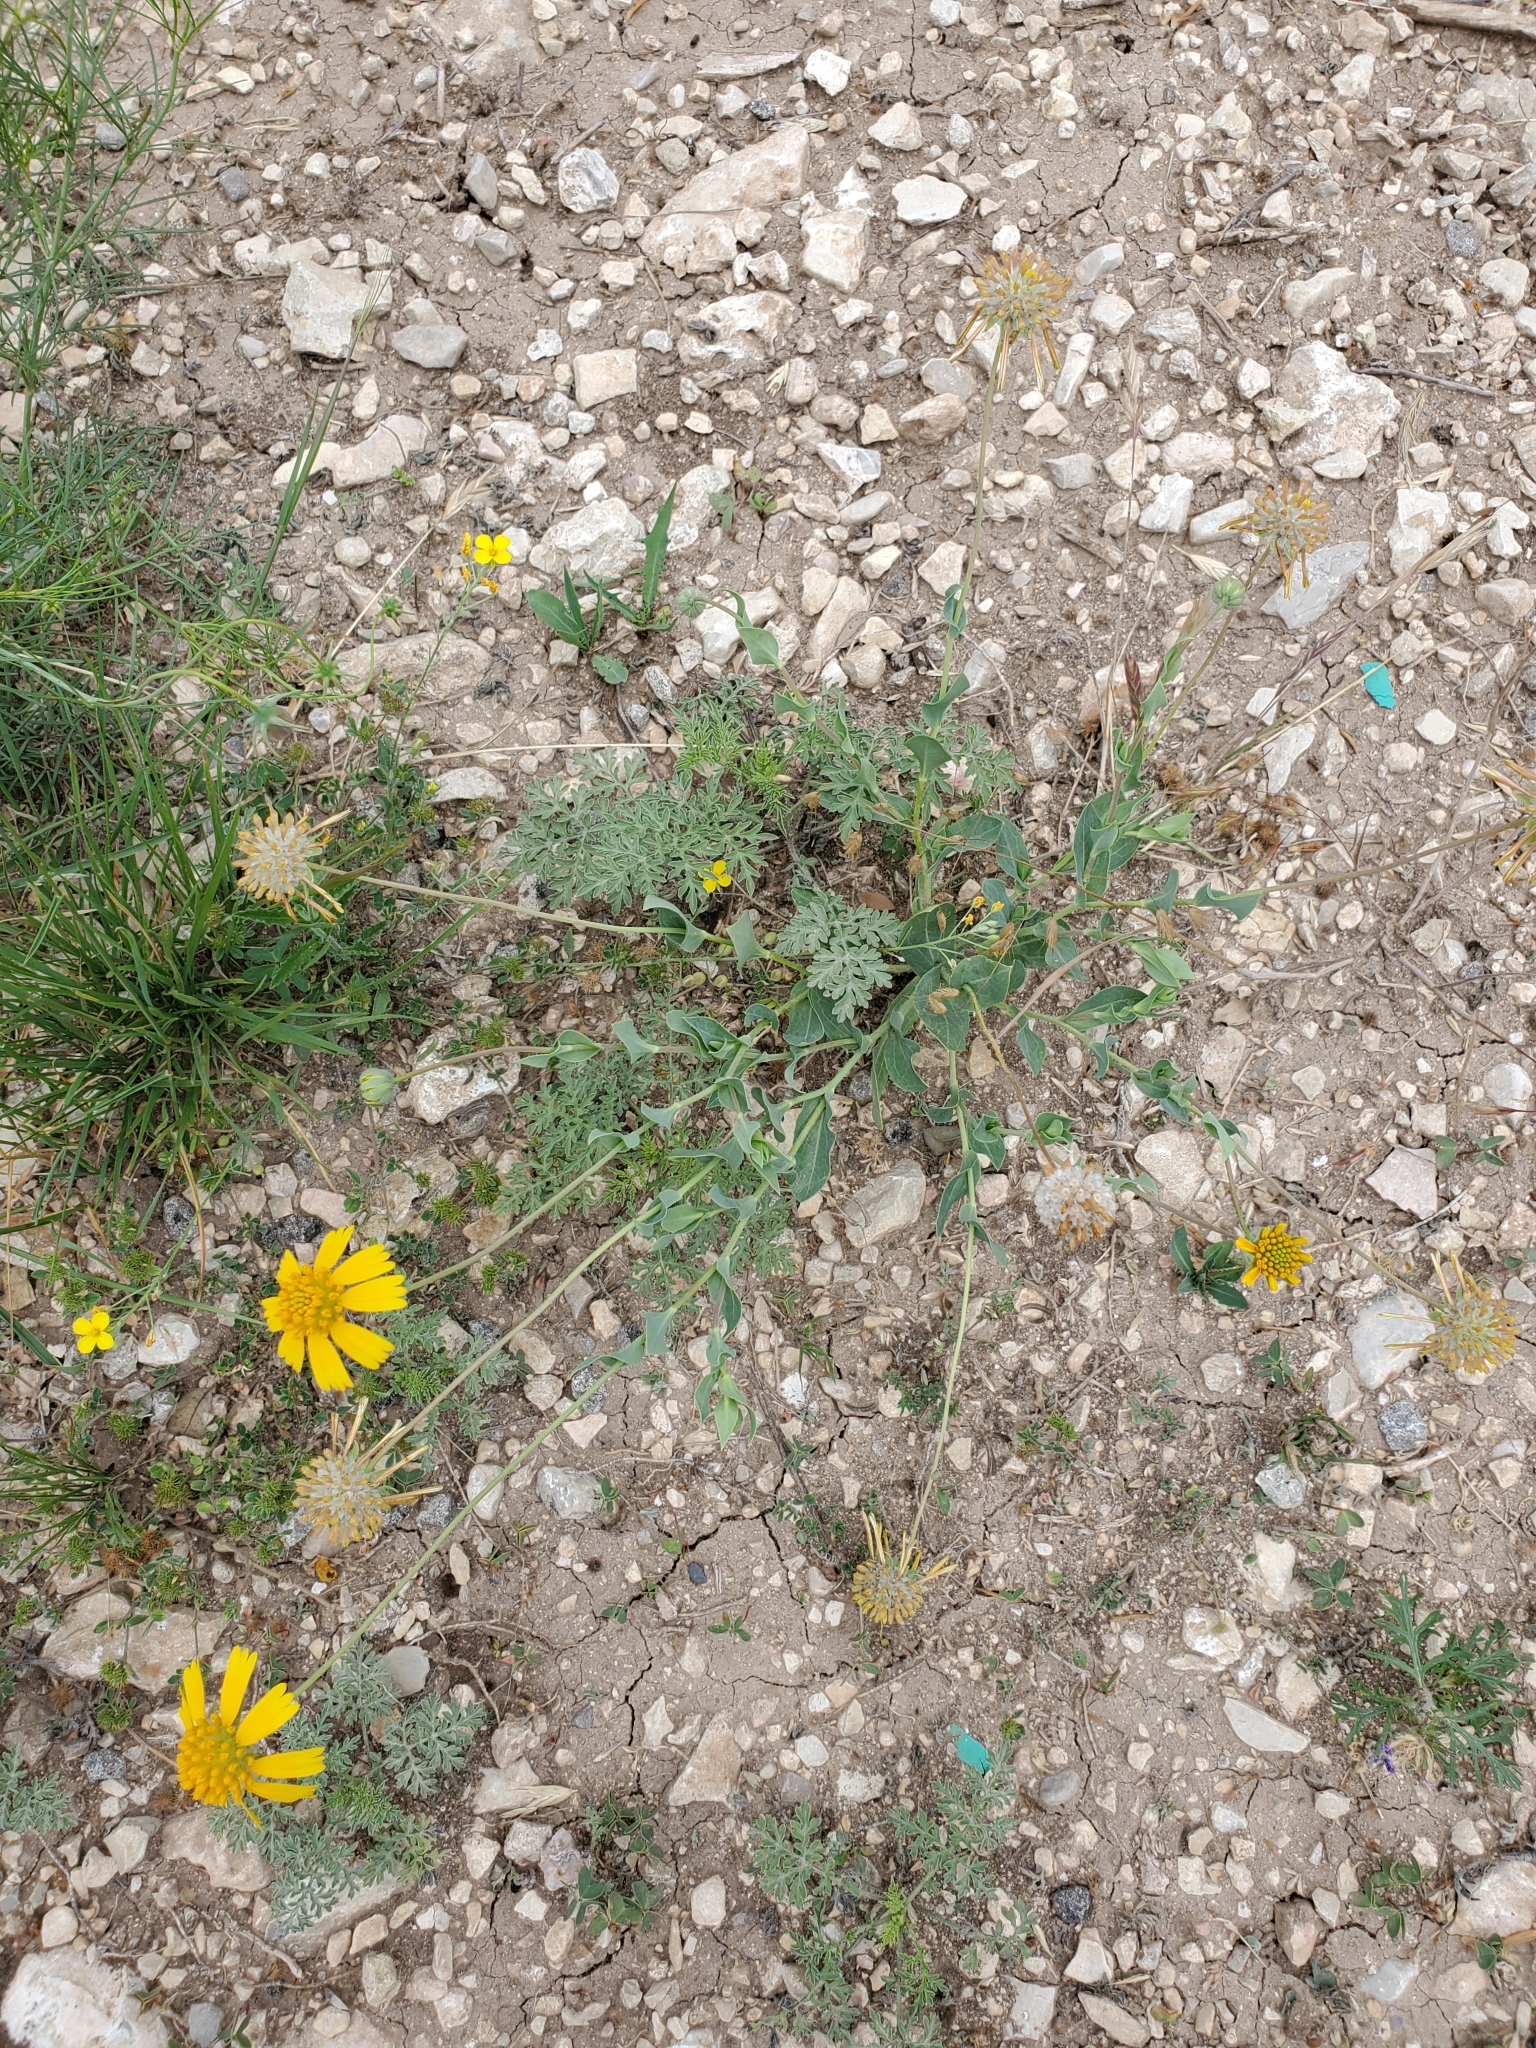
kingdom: Plantae
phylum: Tracheophyta
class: Magnoliopsida
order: Asterales
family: Asteraceae
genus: Amblyolepis
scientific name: Amblyolepis setigera
